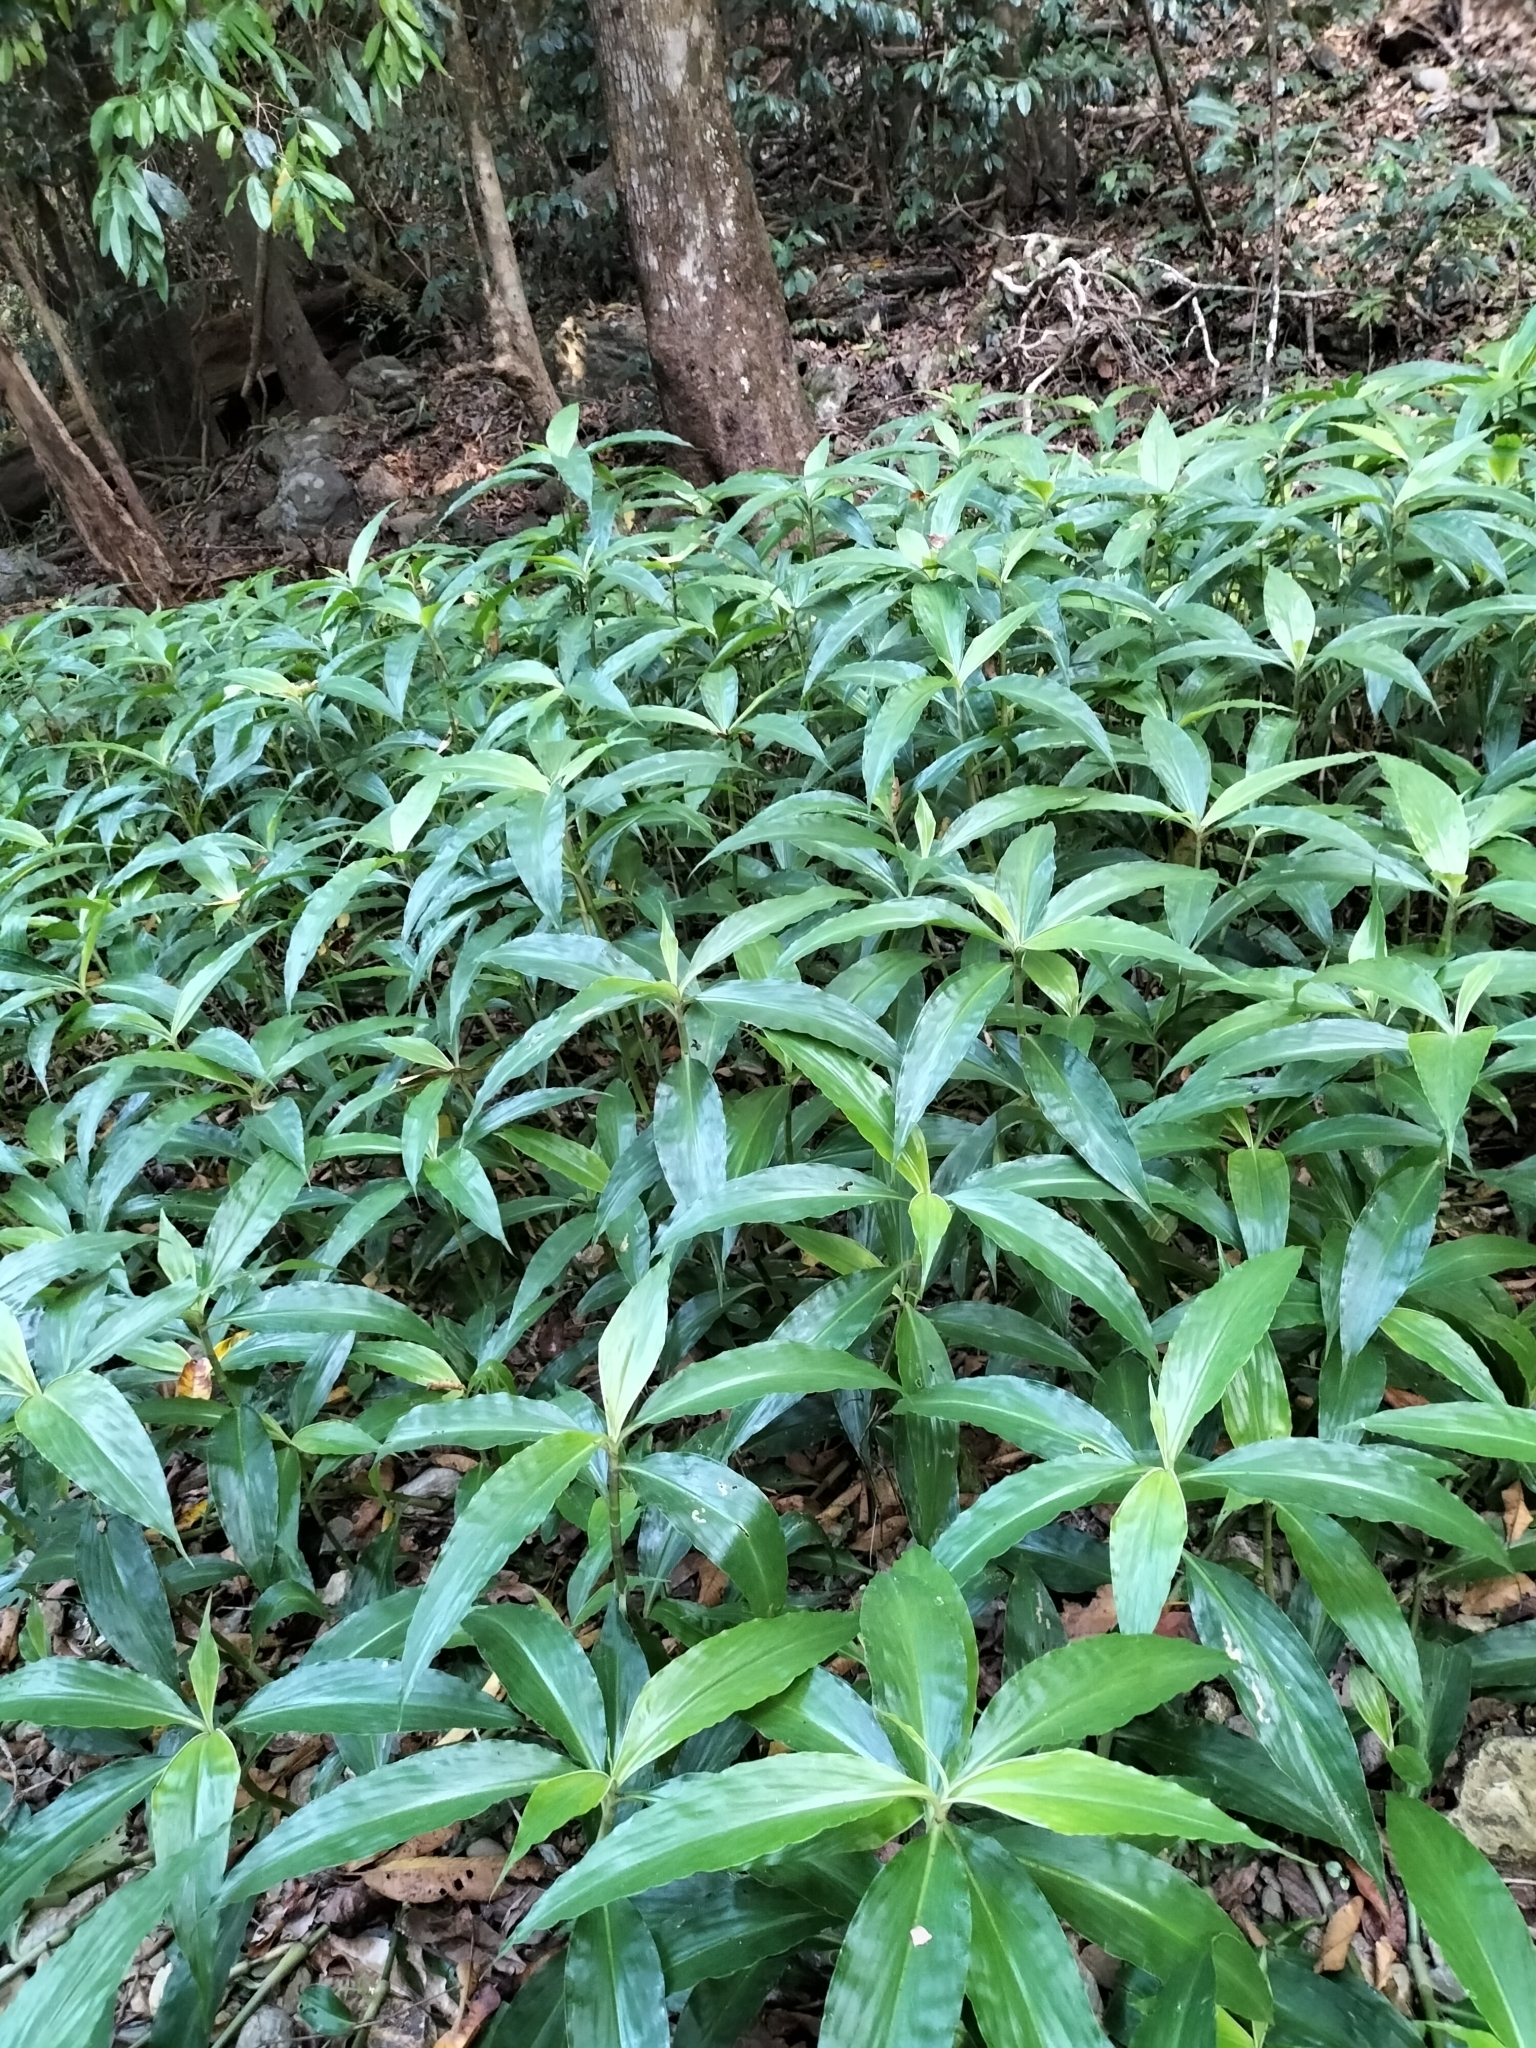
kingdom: Plantae
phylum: Tracheophyta
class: Liliopsida
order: Commelinales
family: Commelinaceae
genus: Pollia
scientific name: Pollia macrophylla
